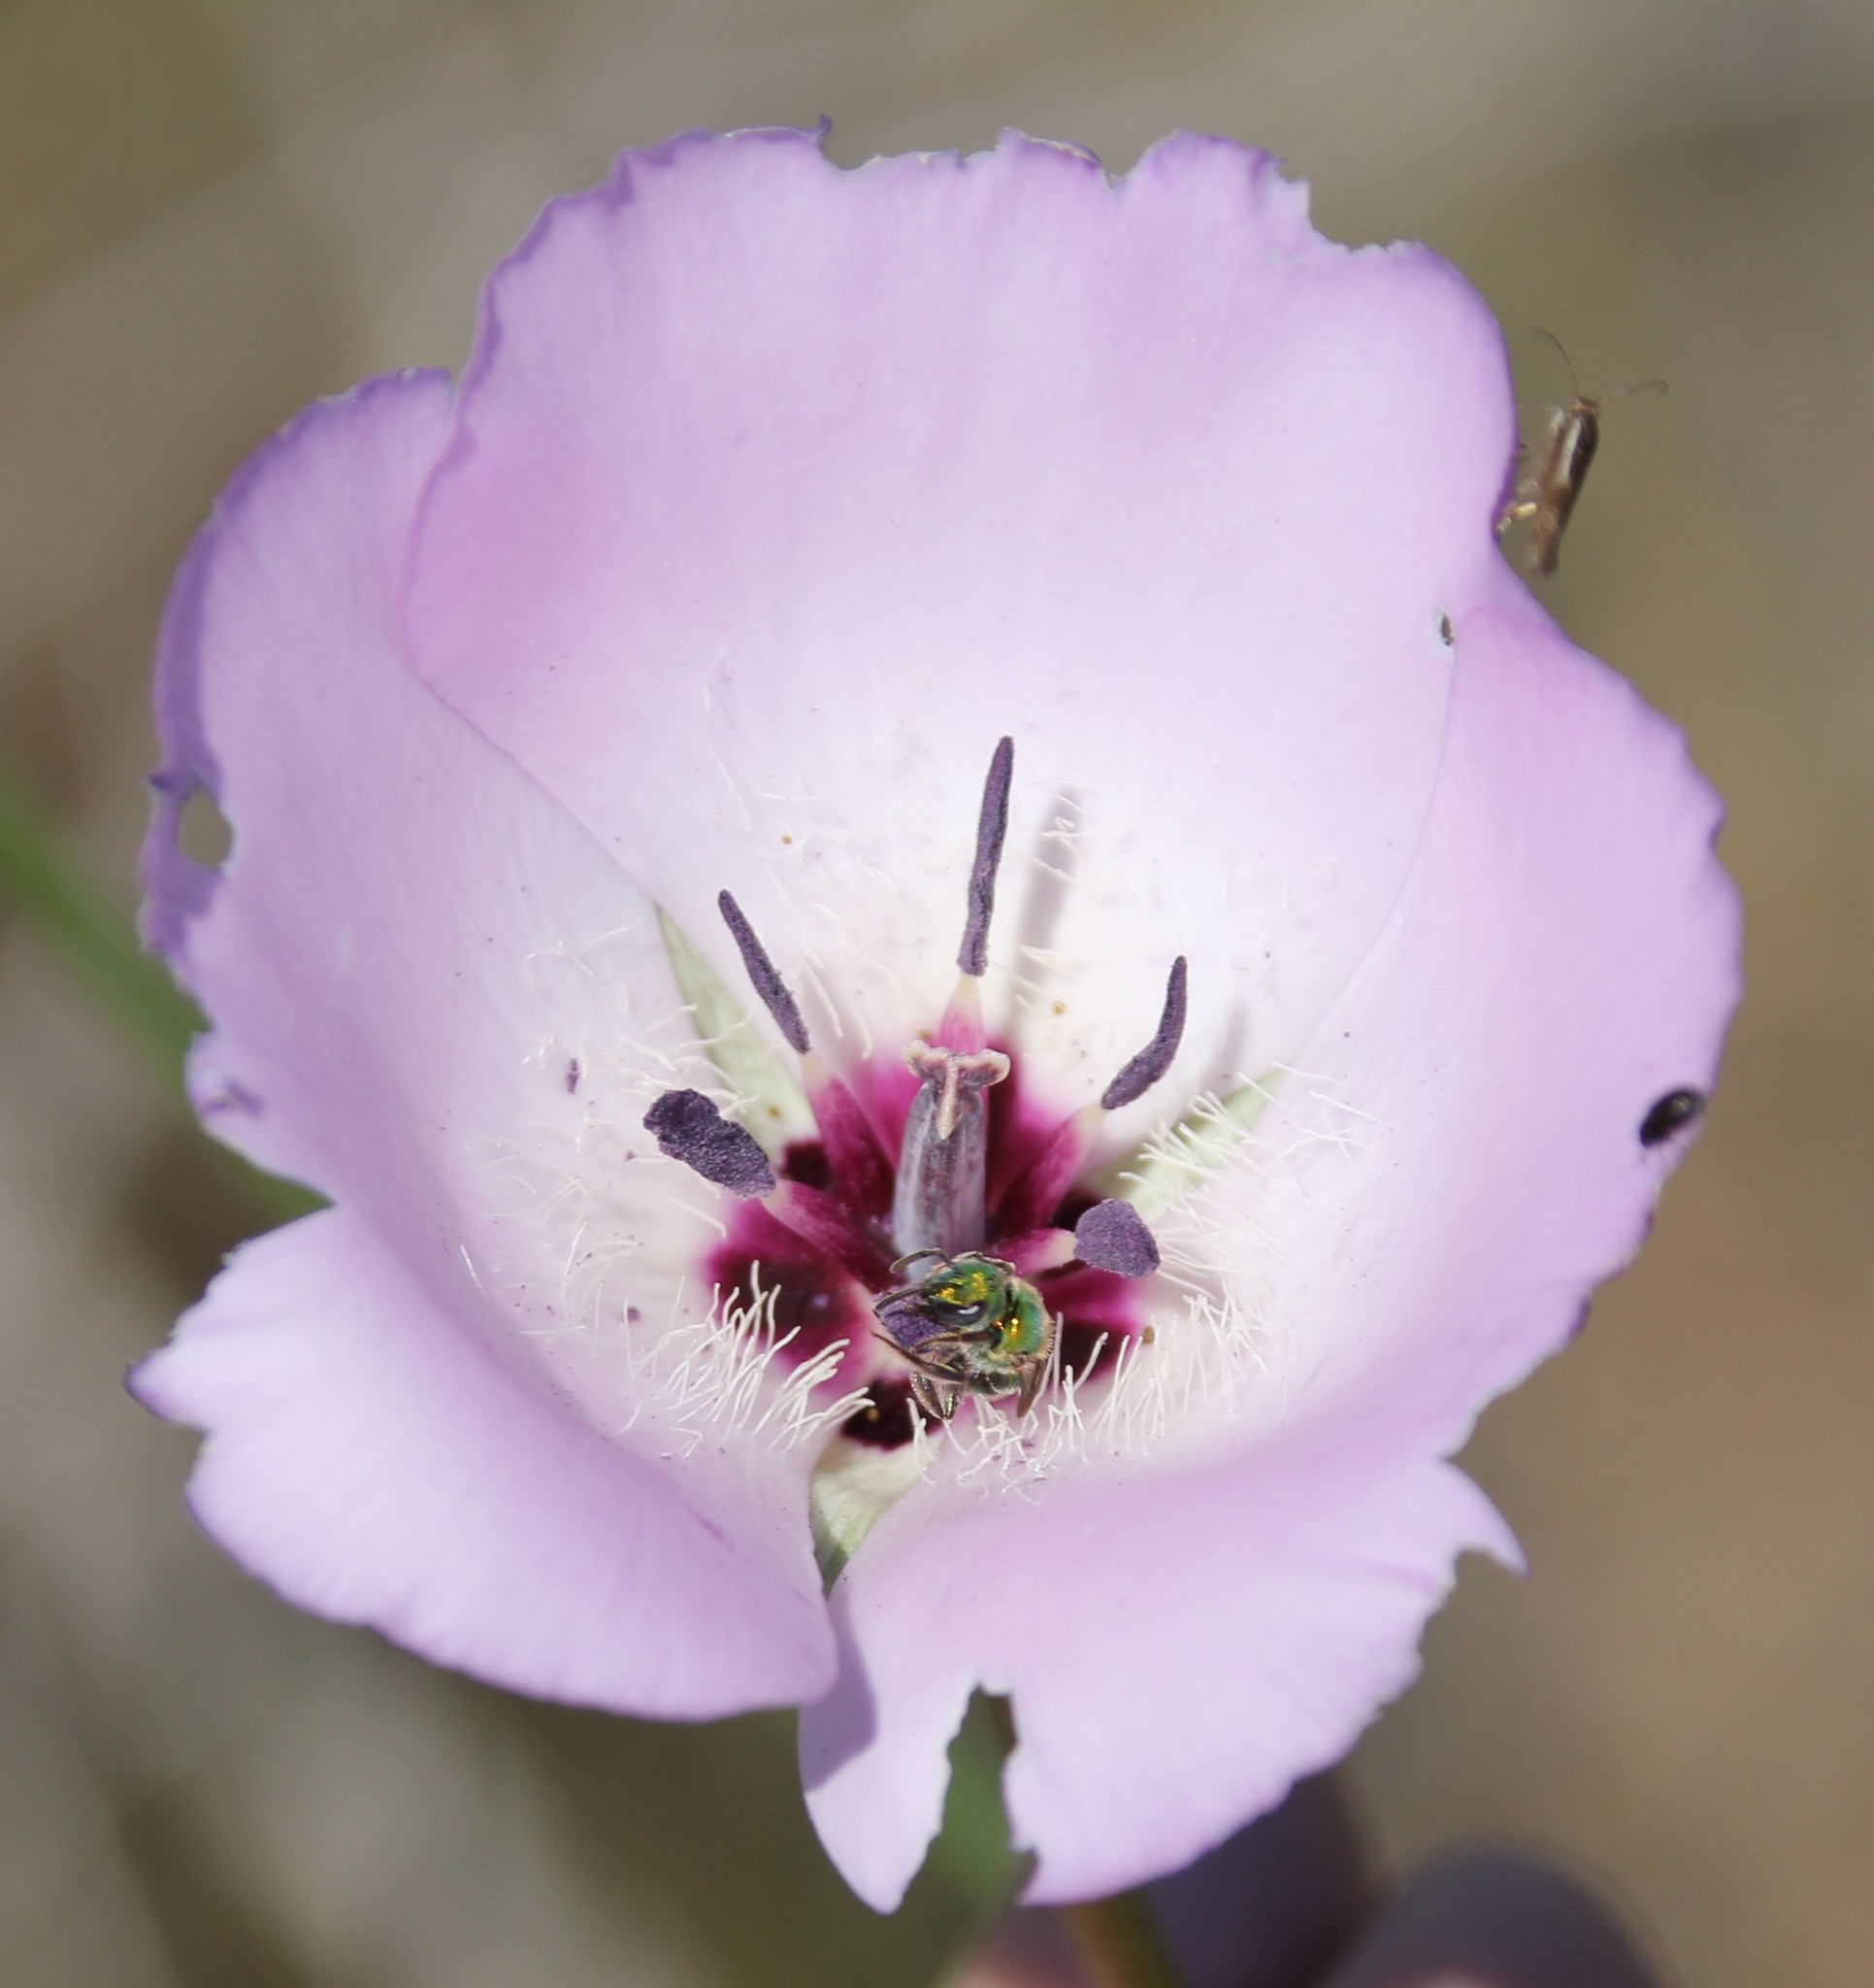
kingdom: Plantae
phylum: Tracheophyta
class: Liliopsida
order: Liliales
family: Liliaceae
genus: Calochortus
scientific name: Calochortus splendens
